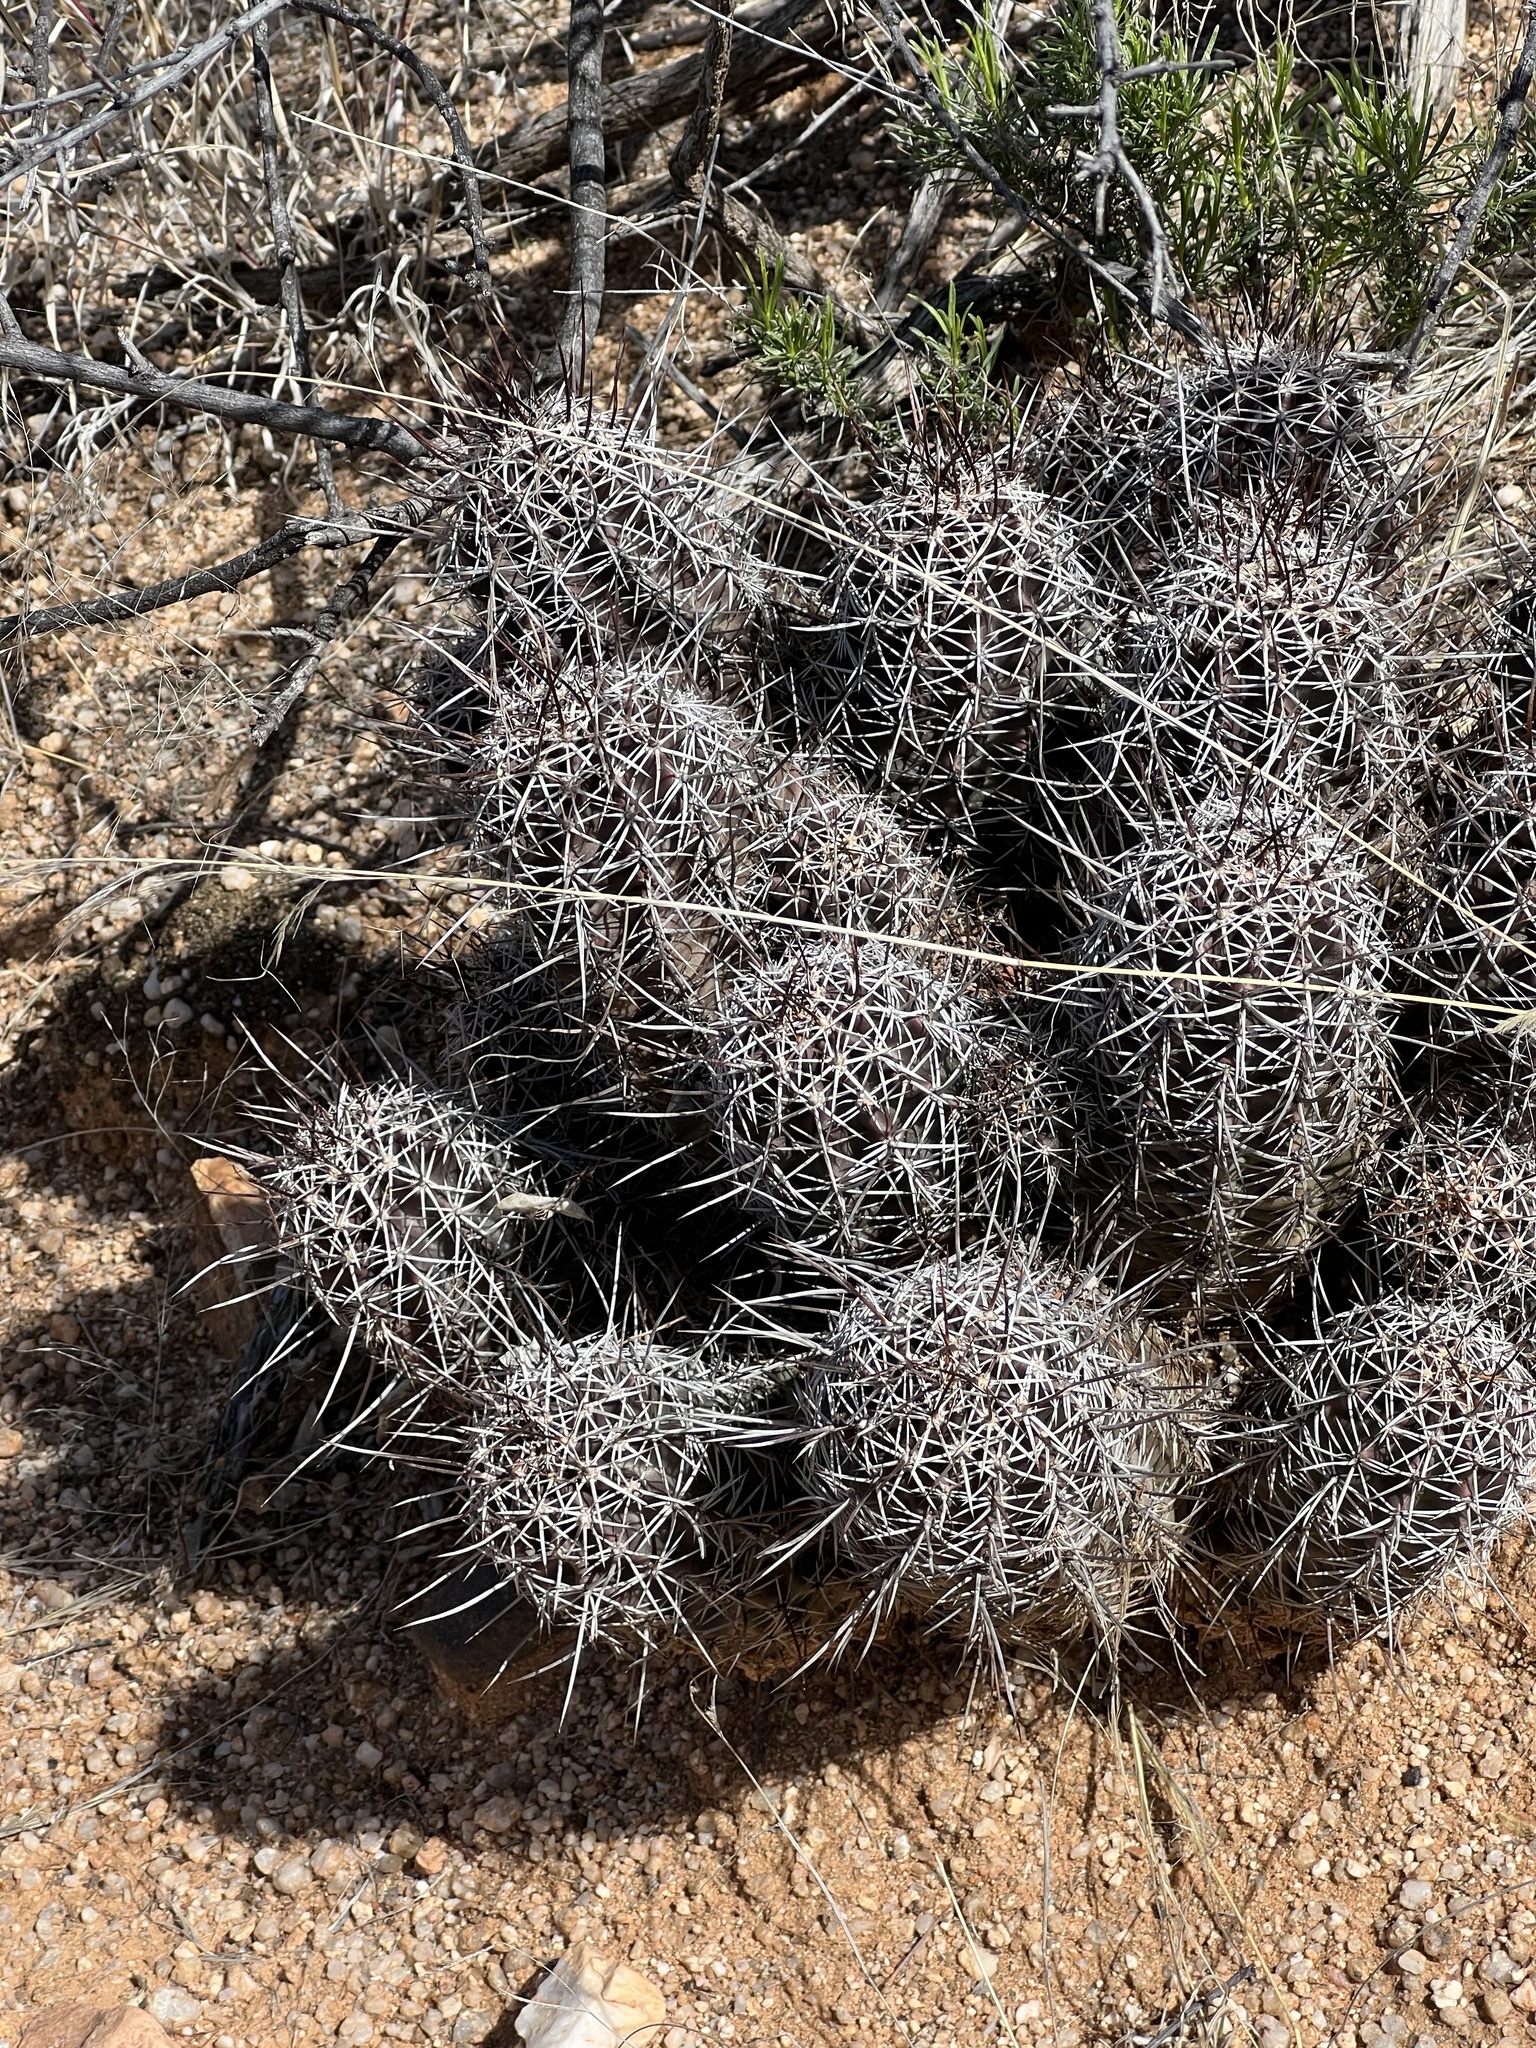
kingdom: Plantae
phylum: Tracheophyta
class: Magnoliopsida
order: Caryophyllales
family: Cactaceae
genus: Echinocereus
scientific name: Echinocereus fendleri
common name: Fendler's hedgehog cactus
